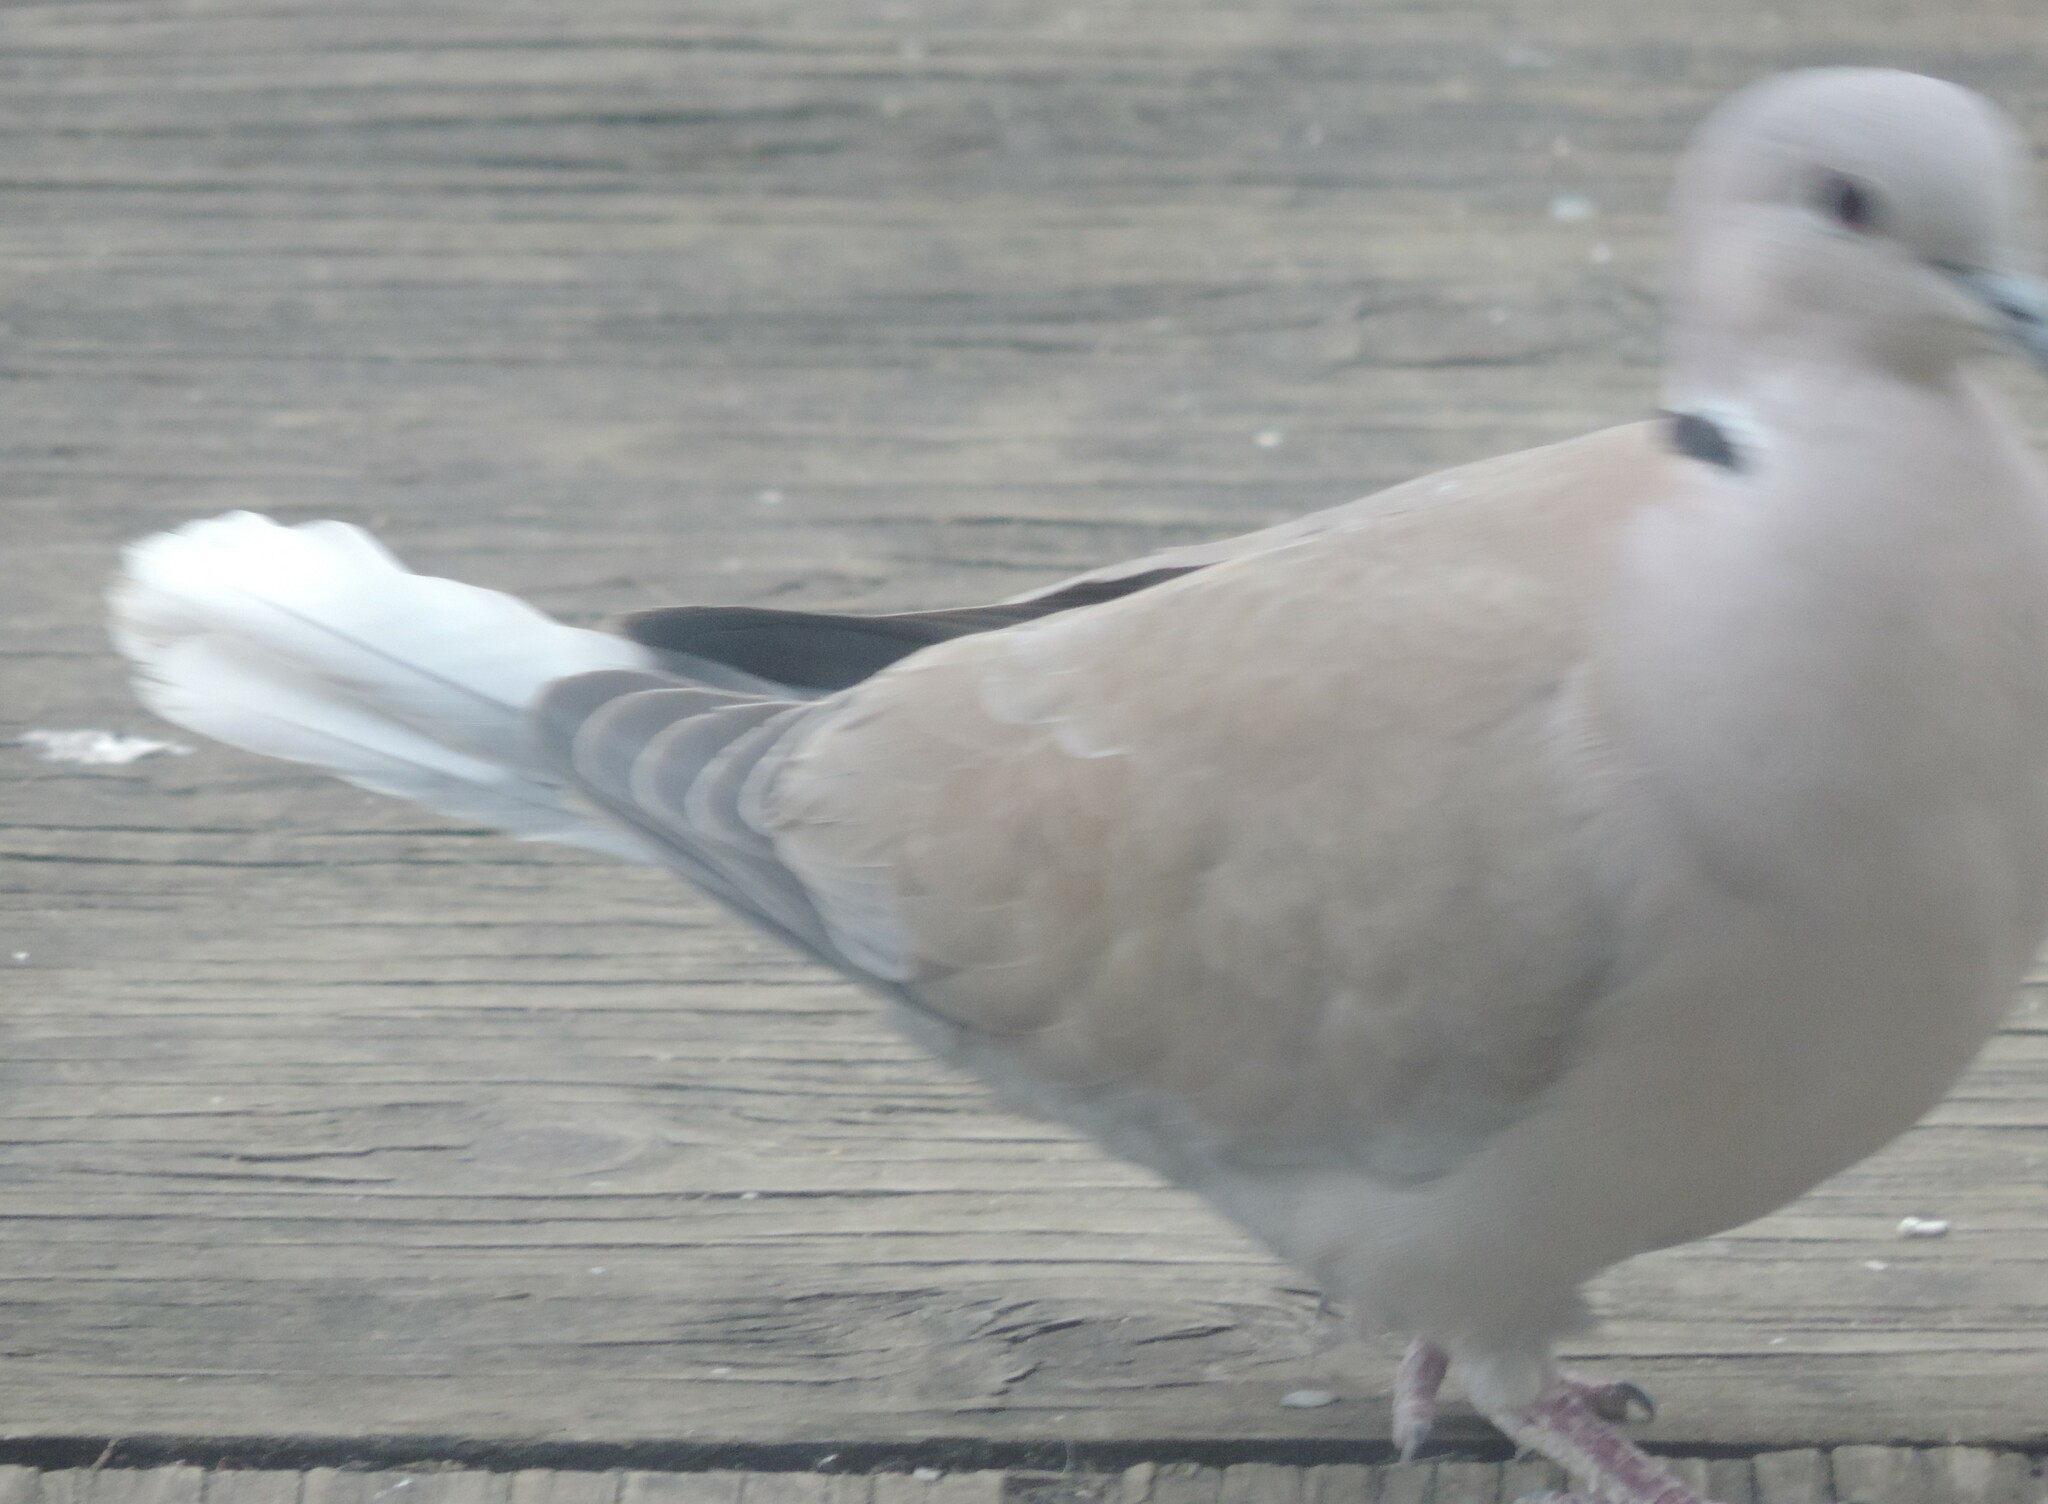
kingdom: Animalia
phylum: Chordata
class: Aves
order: Columbiformes
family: Columbidae
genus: Streptopelia
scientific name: Streptopelia decaocto
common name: Eurasian collared dove
